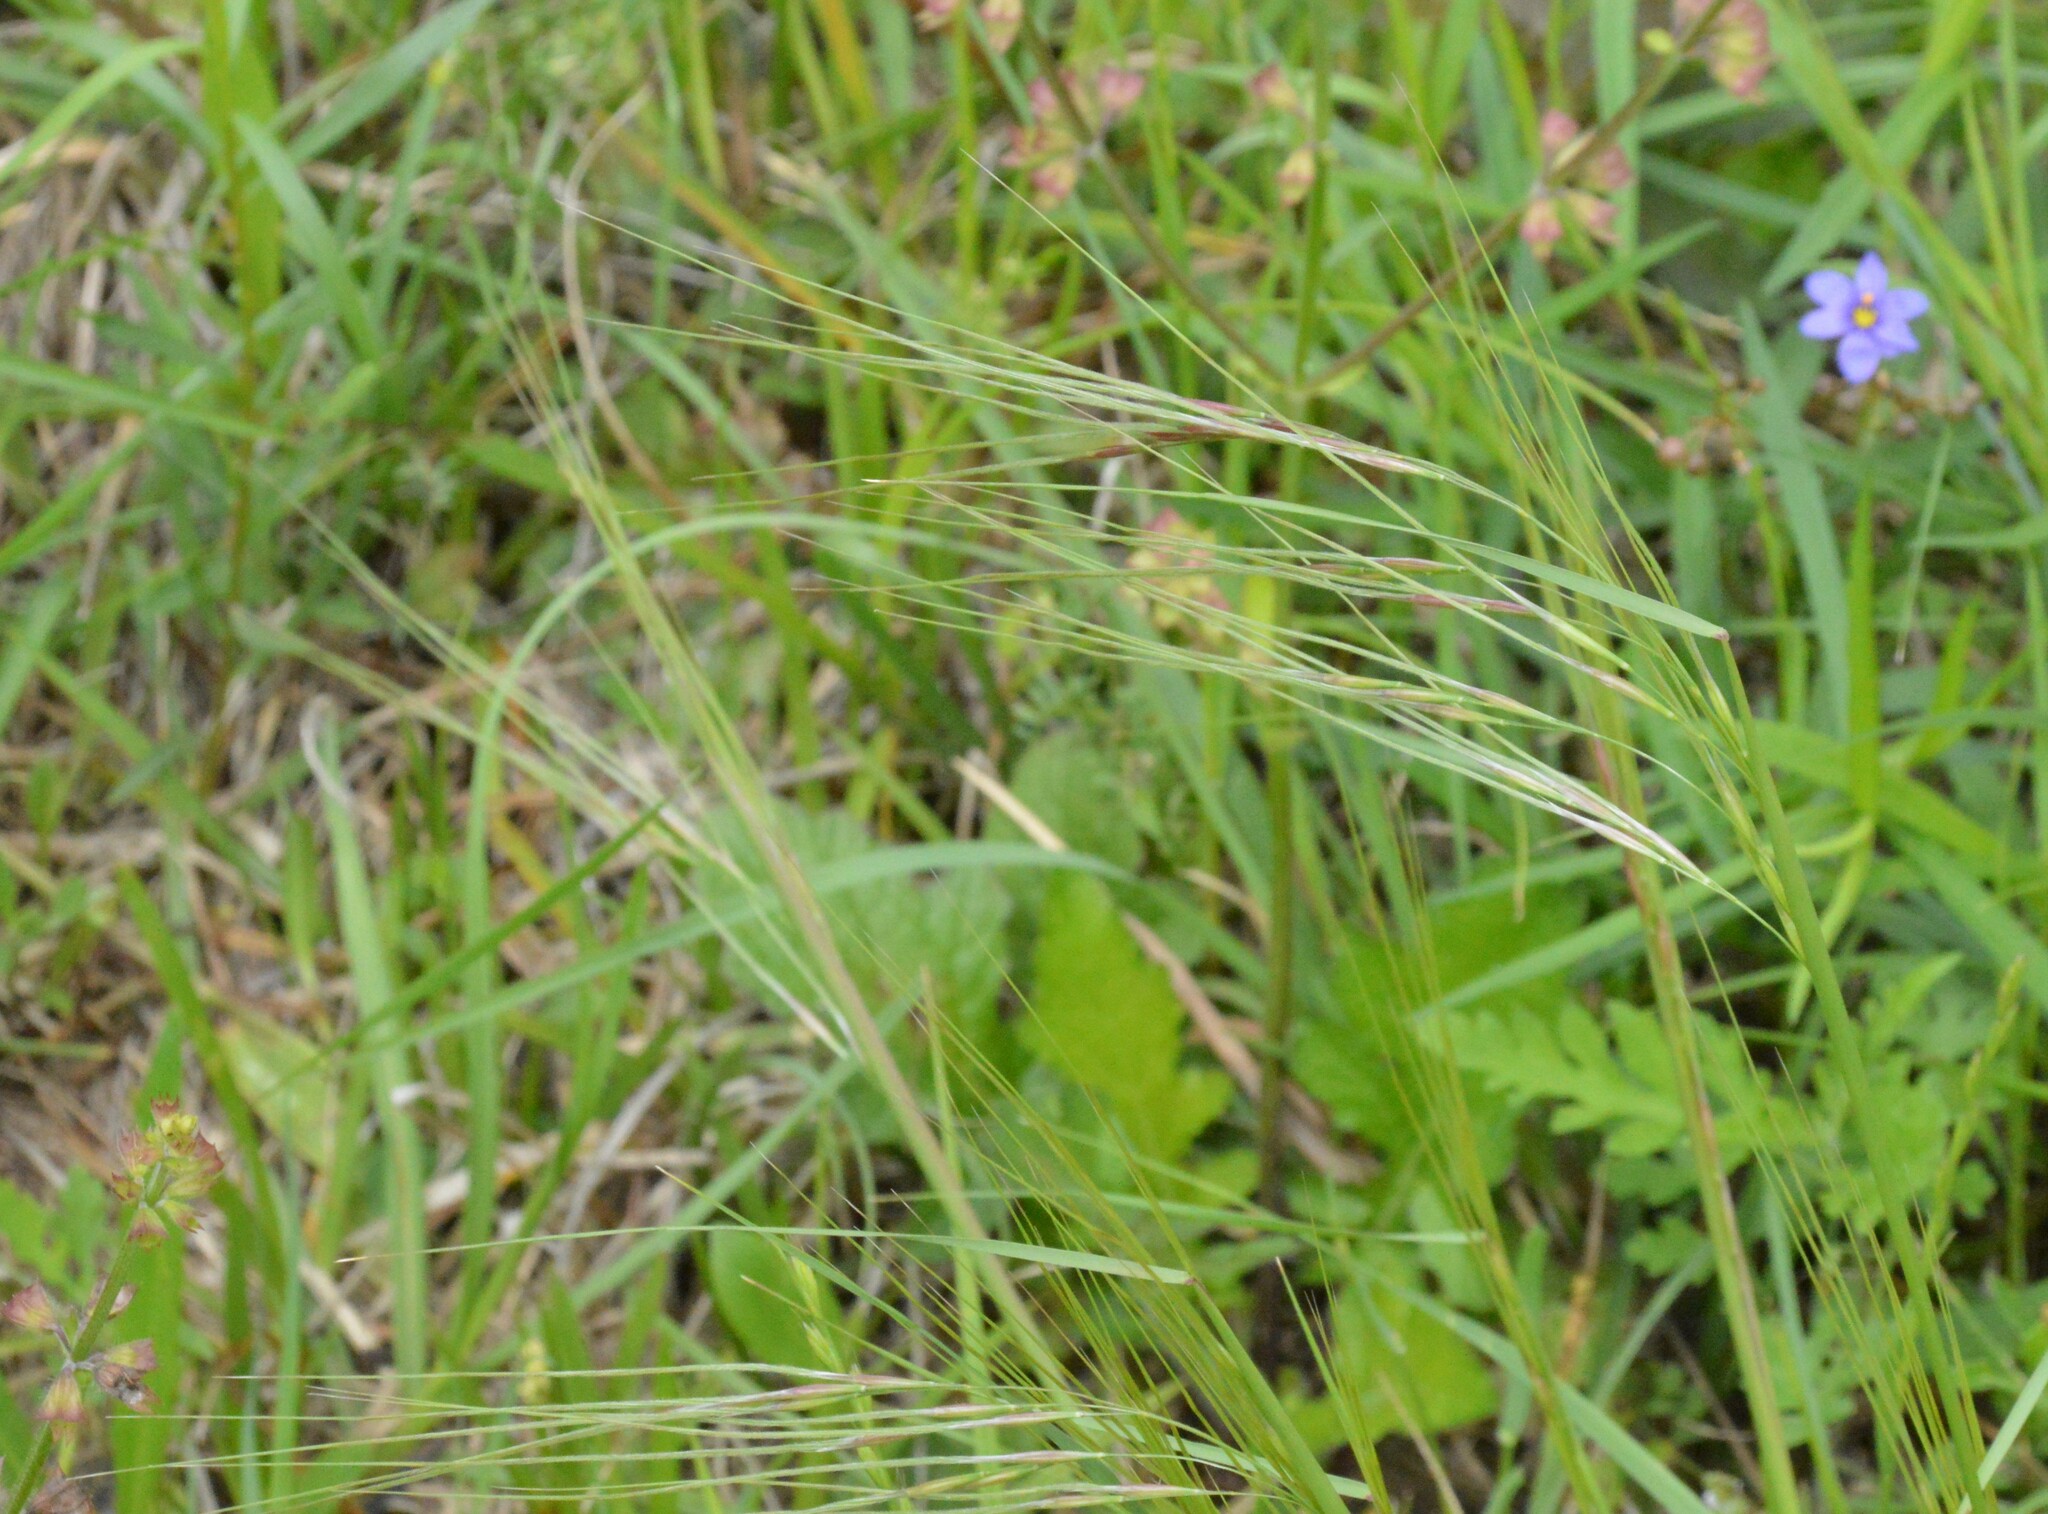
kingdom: Plantae
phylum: Tracheophyta
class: Liliopsida
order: Poales
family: Poaceae
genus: Nassella
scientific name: Nassella leucotricha
